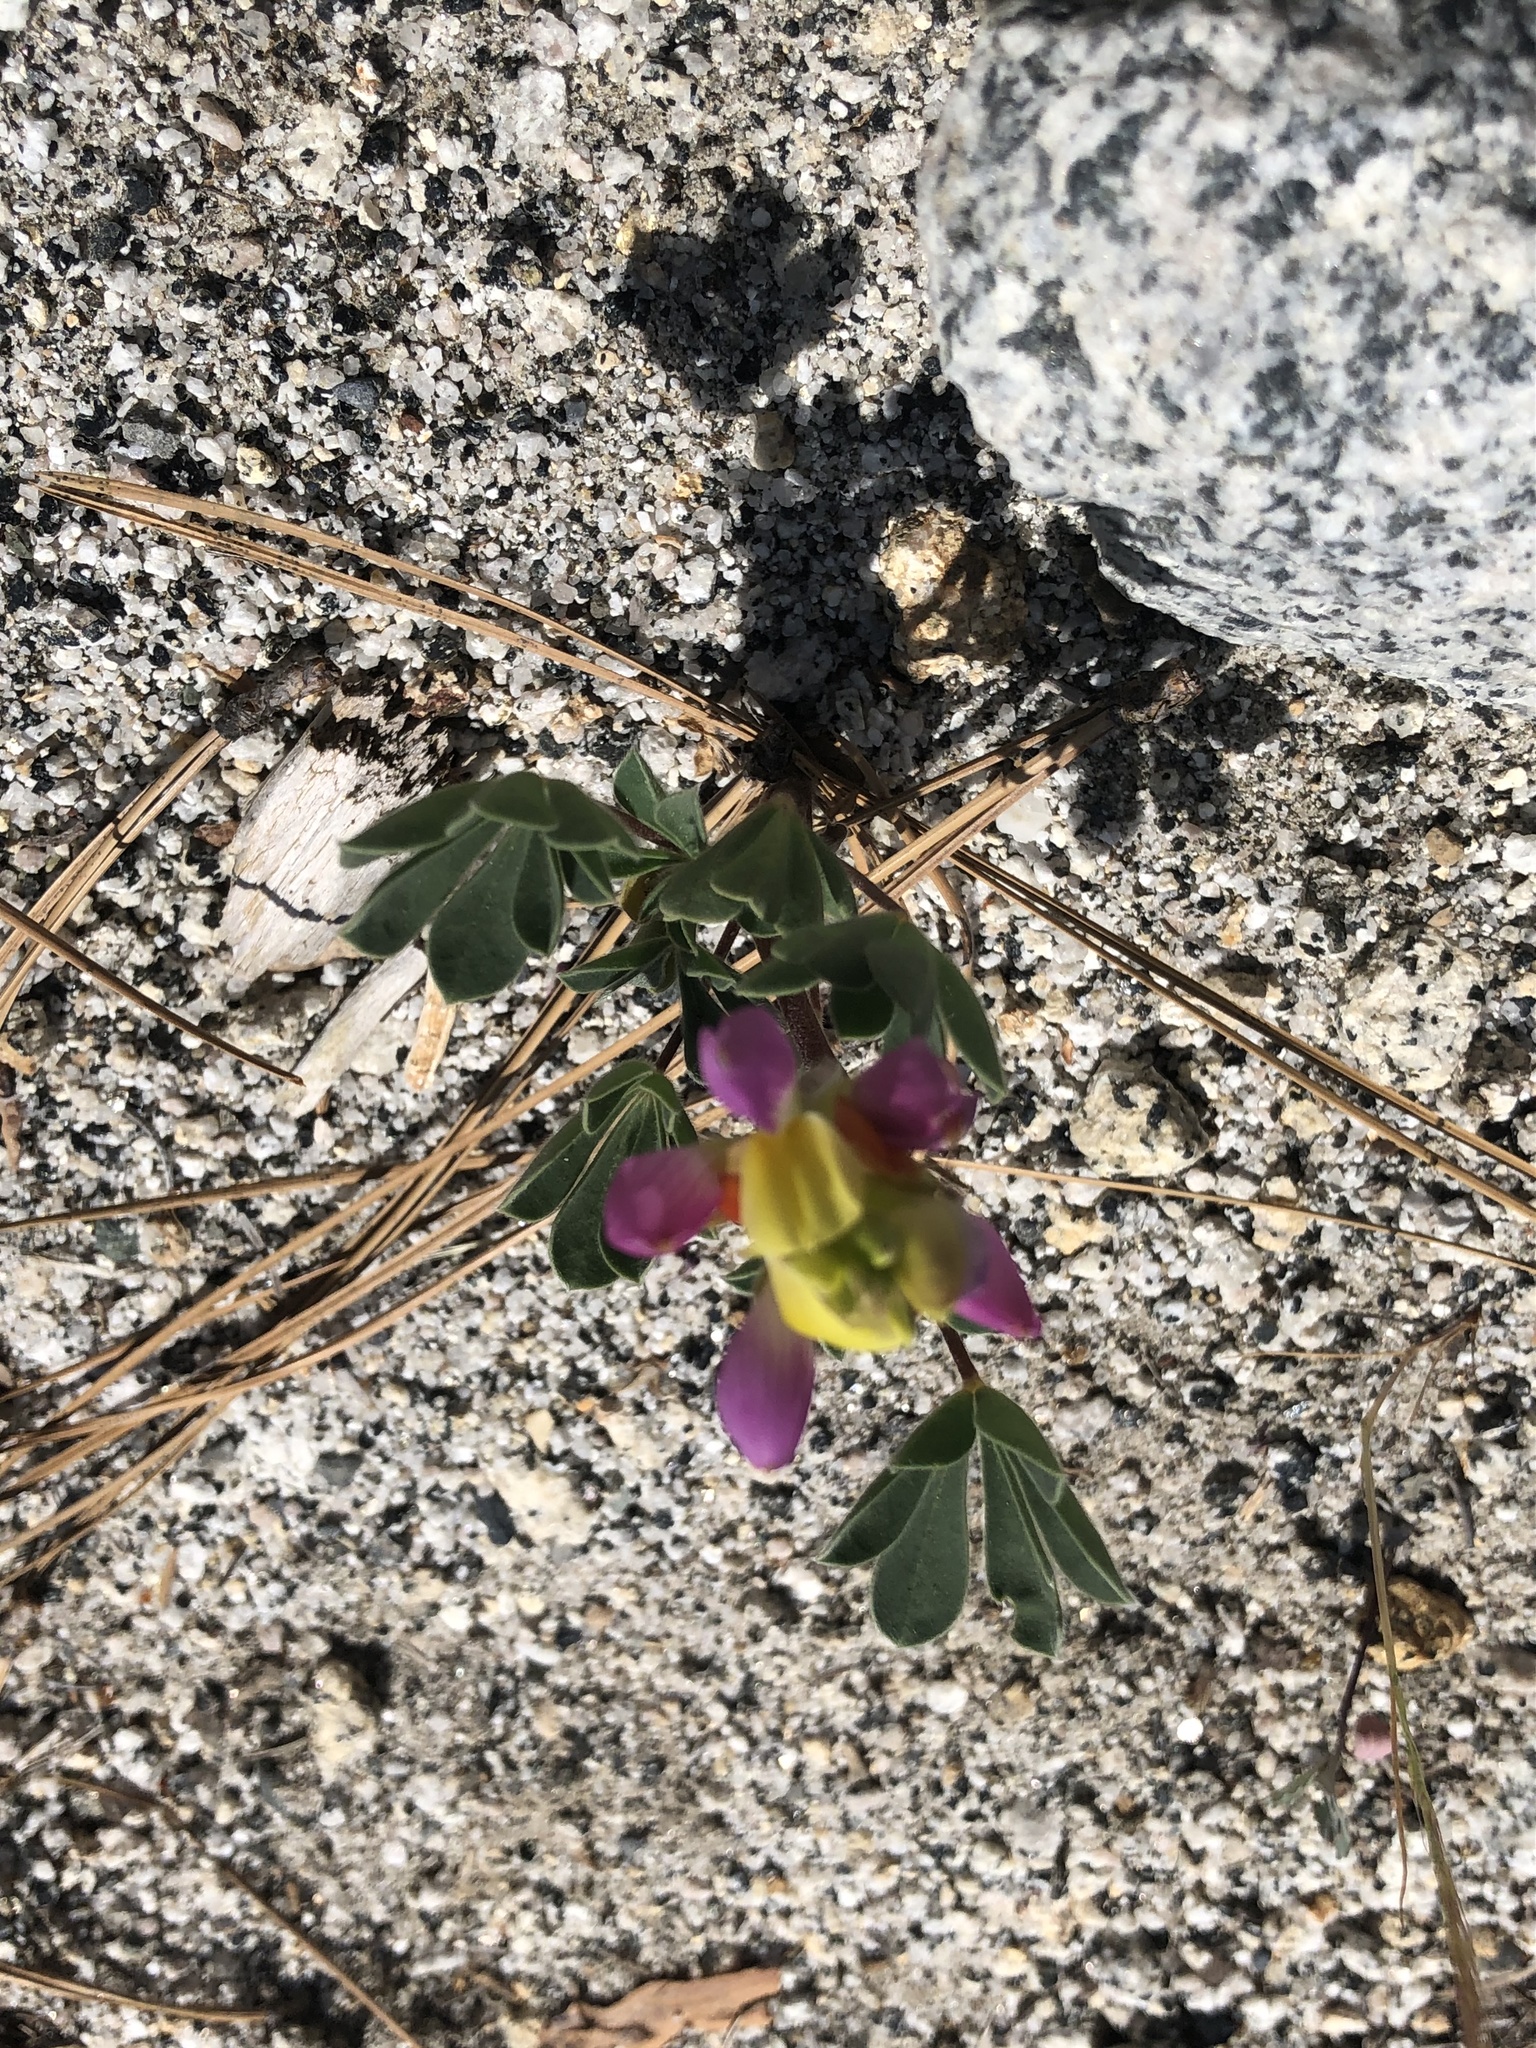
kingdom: Plantae
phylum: Tracheophyta
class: Magnoliopsida
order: Fabales
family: Fabaceae
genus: Lupinus
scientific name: Lupinus stiversii
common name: Harlequin lupine
